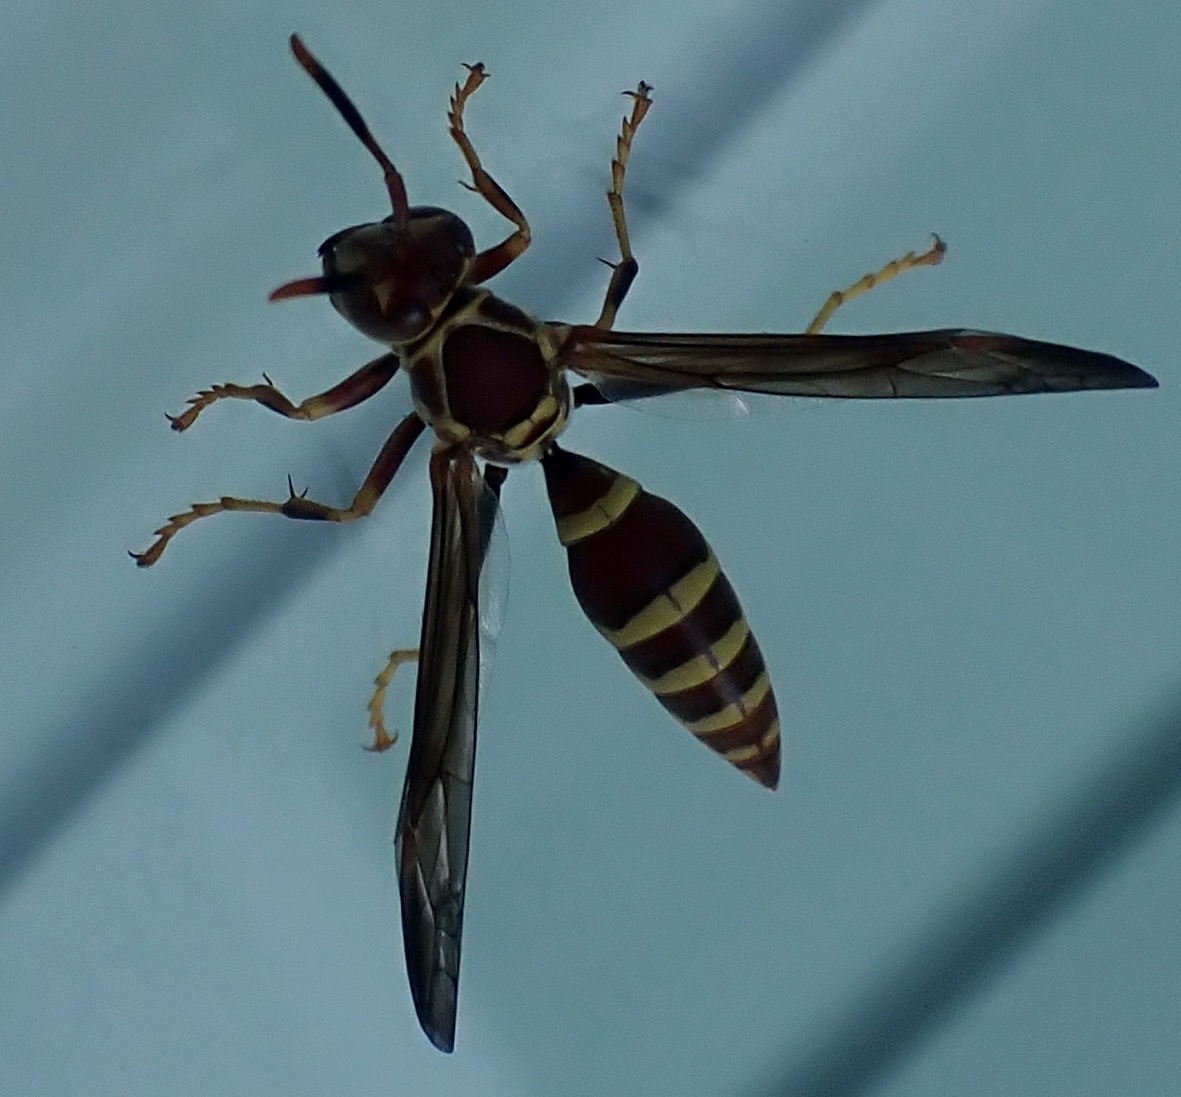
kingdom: Animalia
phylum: Arthropoda
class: Insecta
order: Hymenoptera
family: Eumenidae
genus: Polistes
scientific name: Polistes exclamans
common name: Paper wasp
